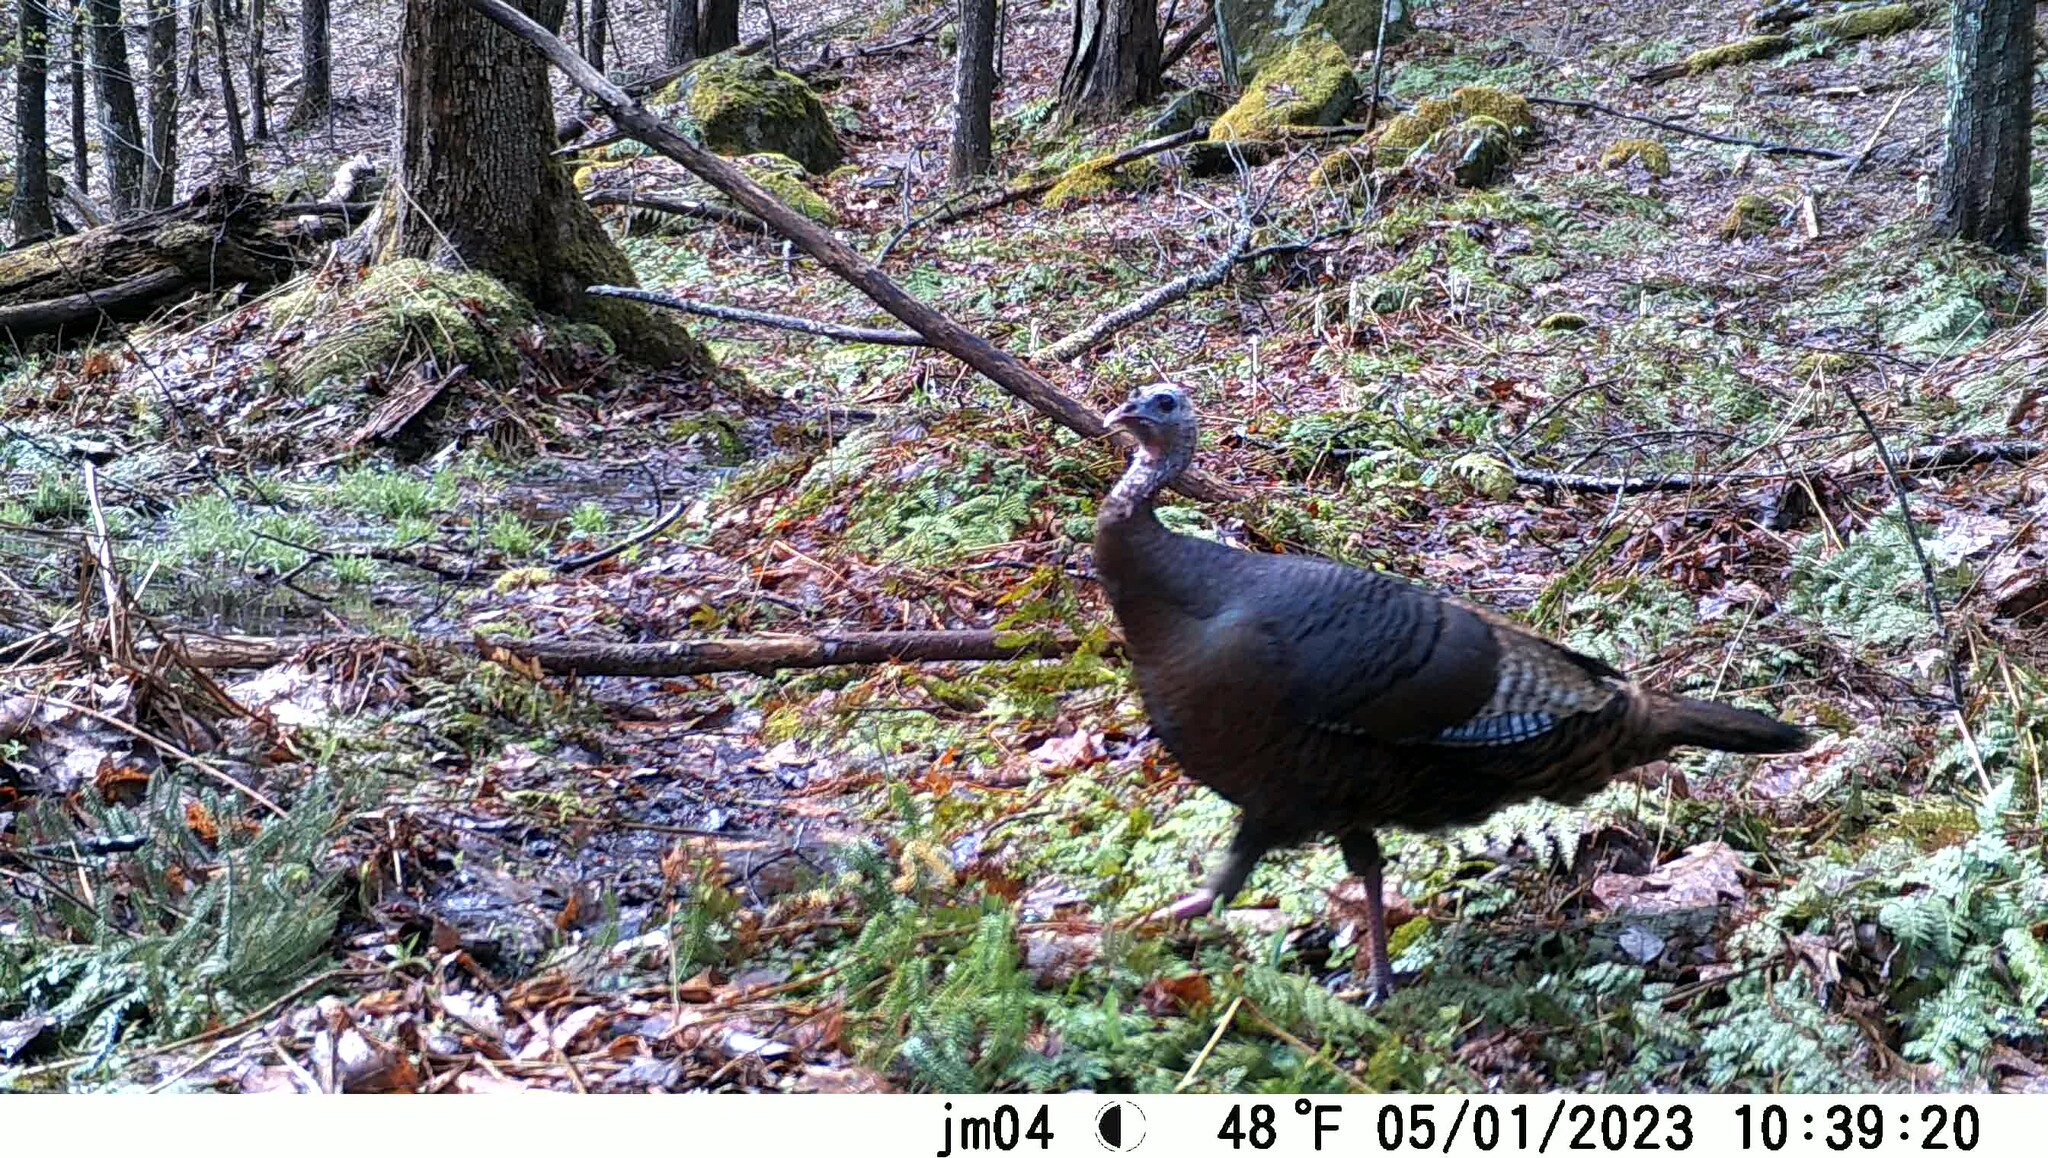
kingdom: Animalia
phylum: Chordata
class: Aves
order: Galliformes
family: Phasianidae
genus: Meleagris
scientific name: Meleagris gallopavo
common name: Wild turkey
